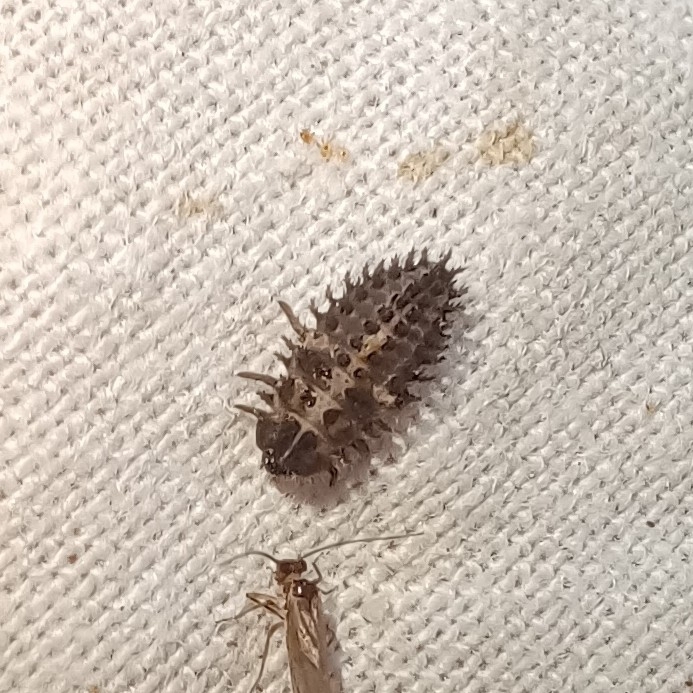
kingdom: Animalia
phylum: Arthropoda
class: Insecta
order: Coleoptera
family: Coccinellidae
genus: Brumus
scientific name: Brumus quadripustulatus
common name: Ladybird beetle
